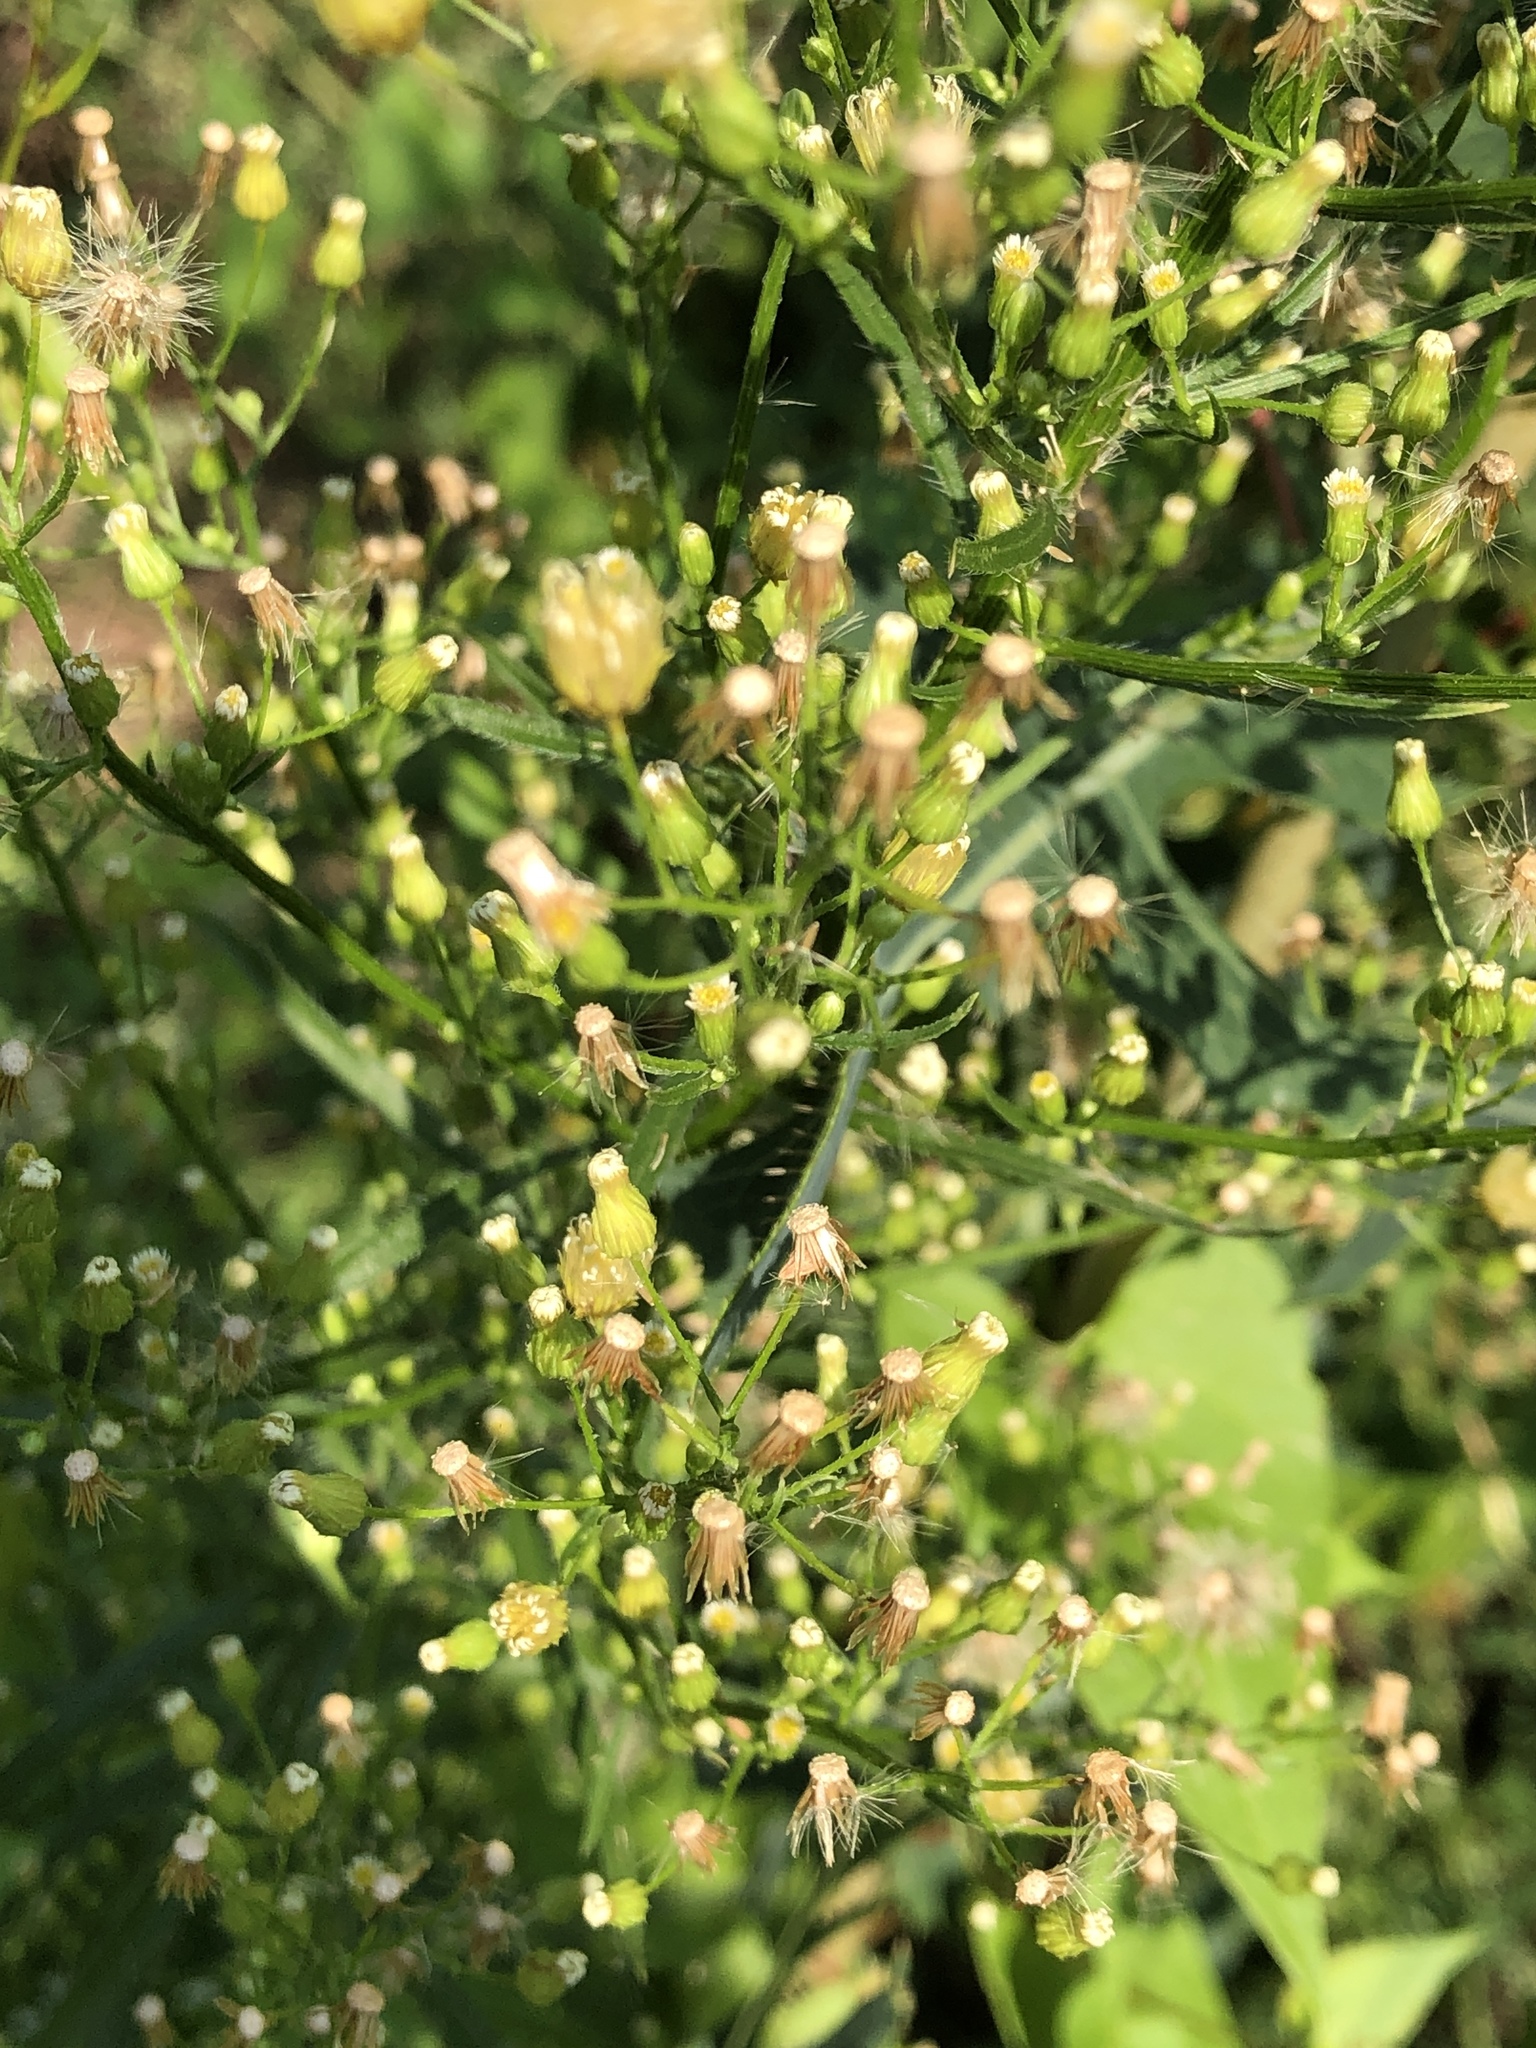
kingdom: Plantae
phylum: Tracheophyta
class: Magnoliopsida
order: Asterales
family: Asteraceae
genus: Erigeron
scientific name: Erigeron canadensis
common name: Canadian fleabane
